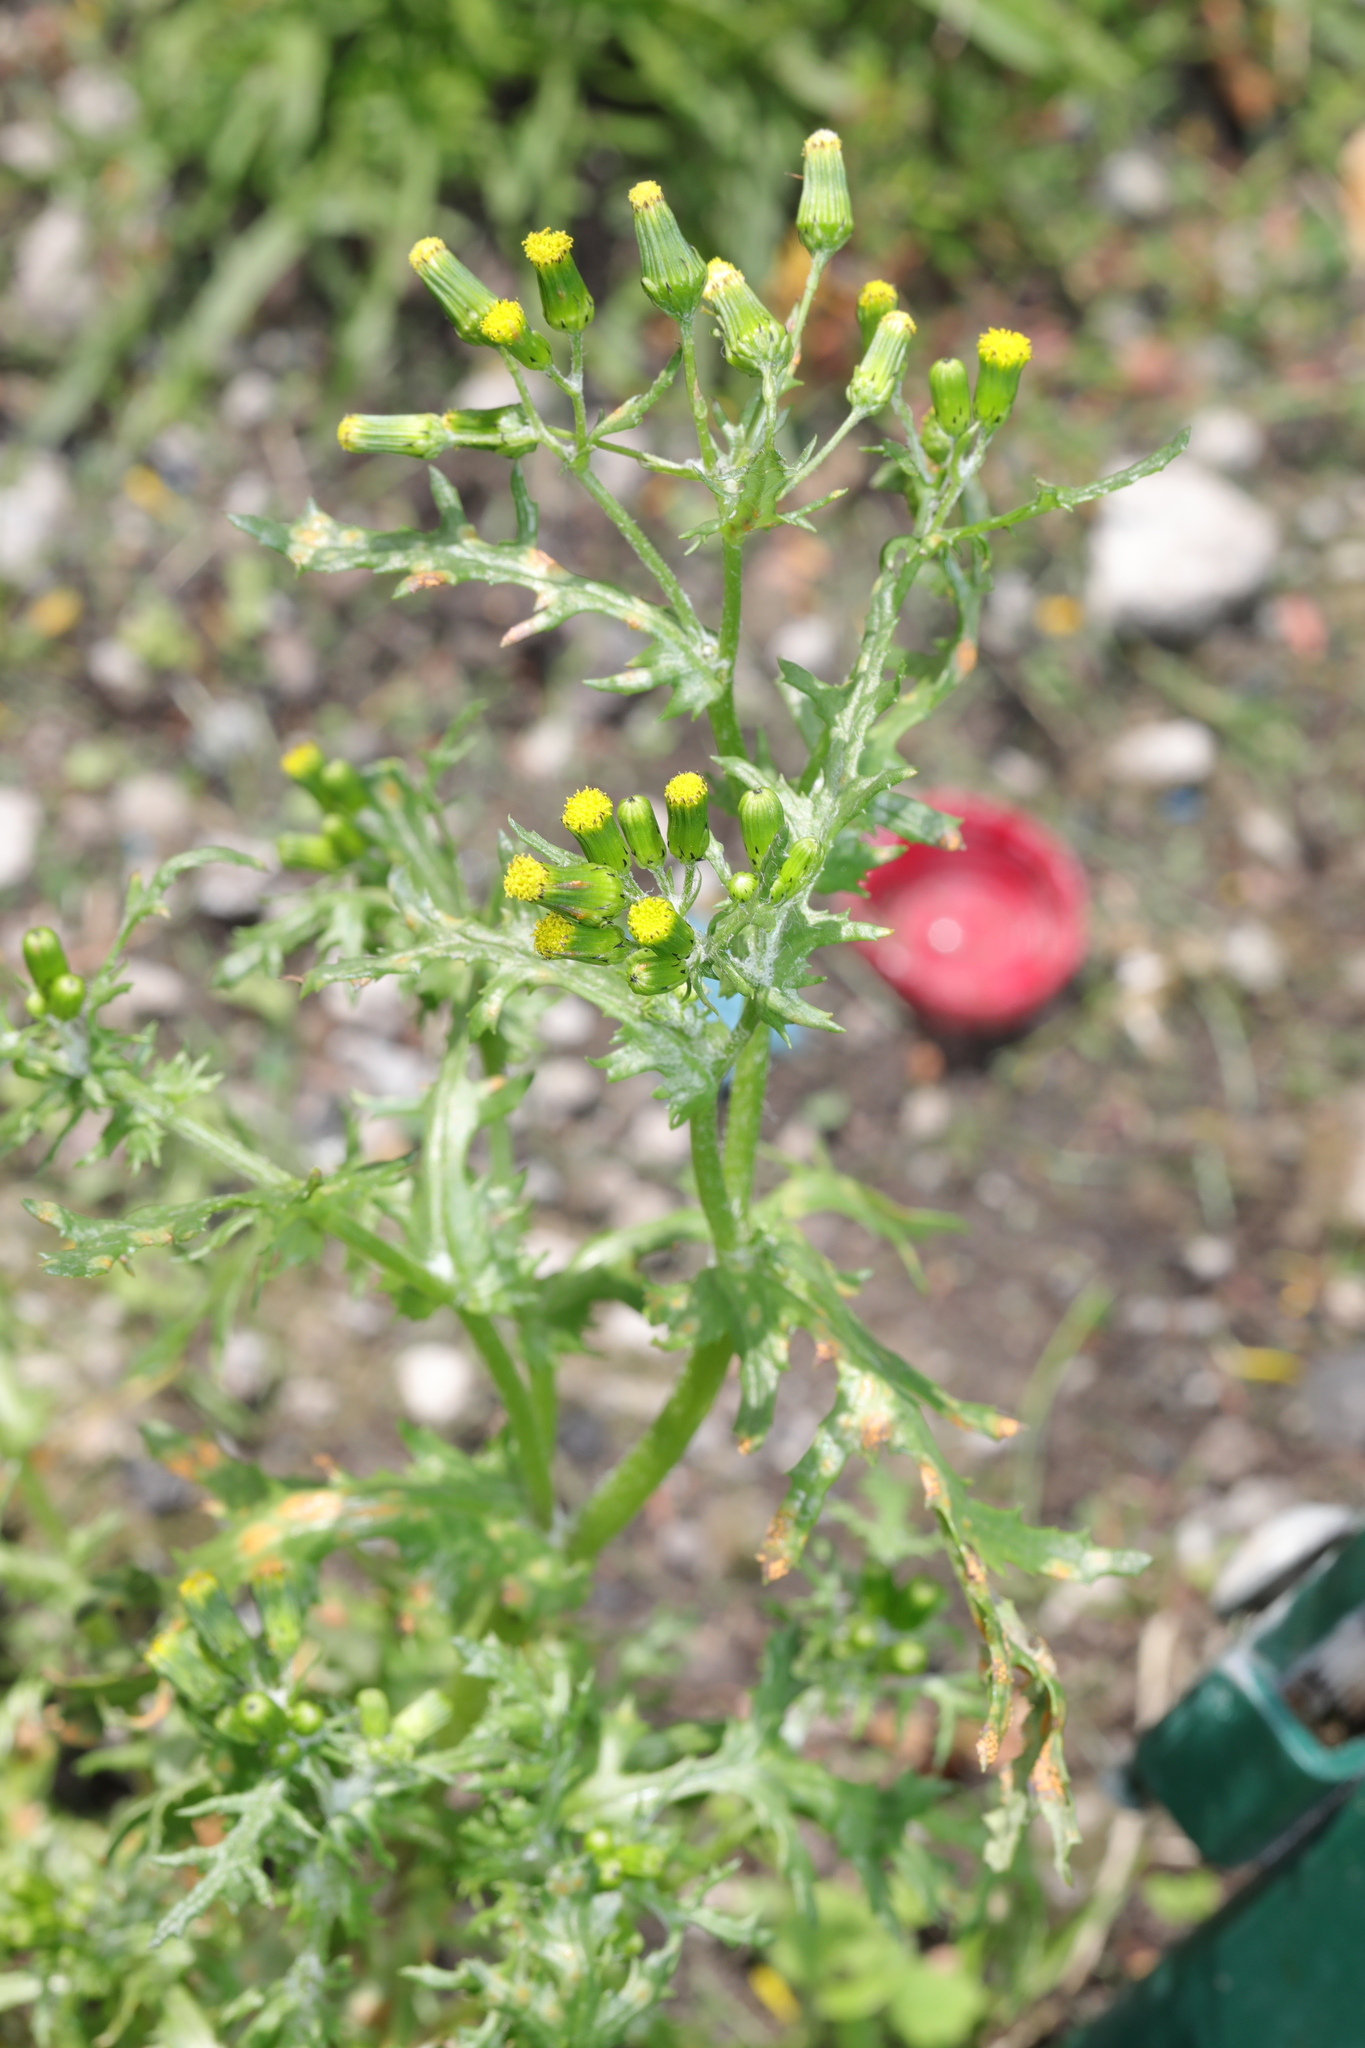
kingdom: Plantae
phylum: Tracheophyta
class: Magnoliopsida
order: Asterales
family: Asteraceae
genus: Senecio
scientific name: Senecio vulgaris
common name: Old-man-in-the-spring
